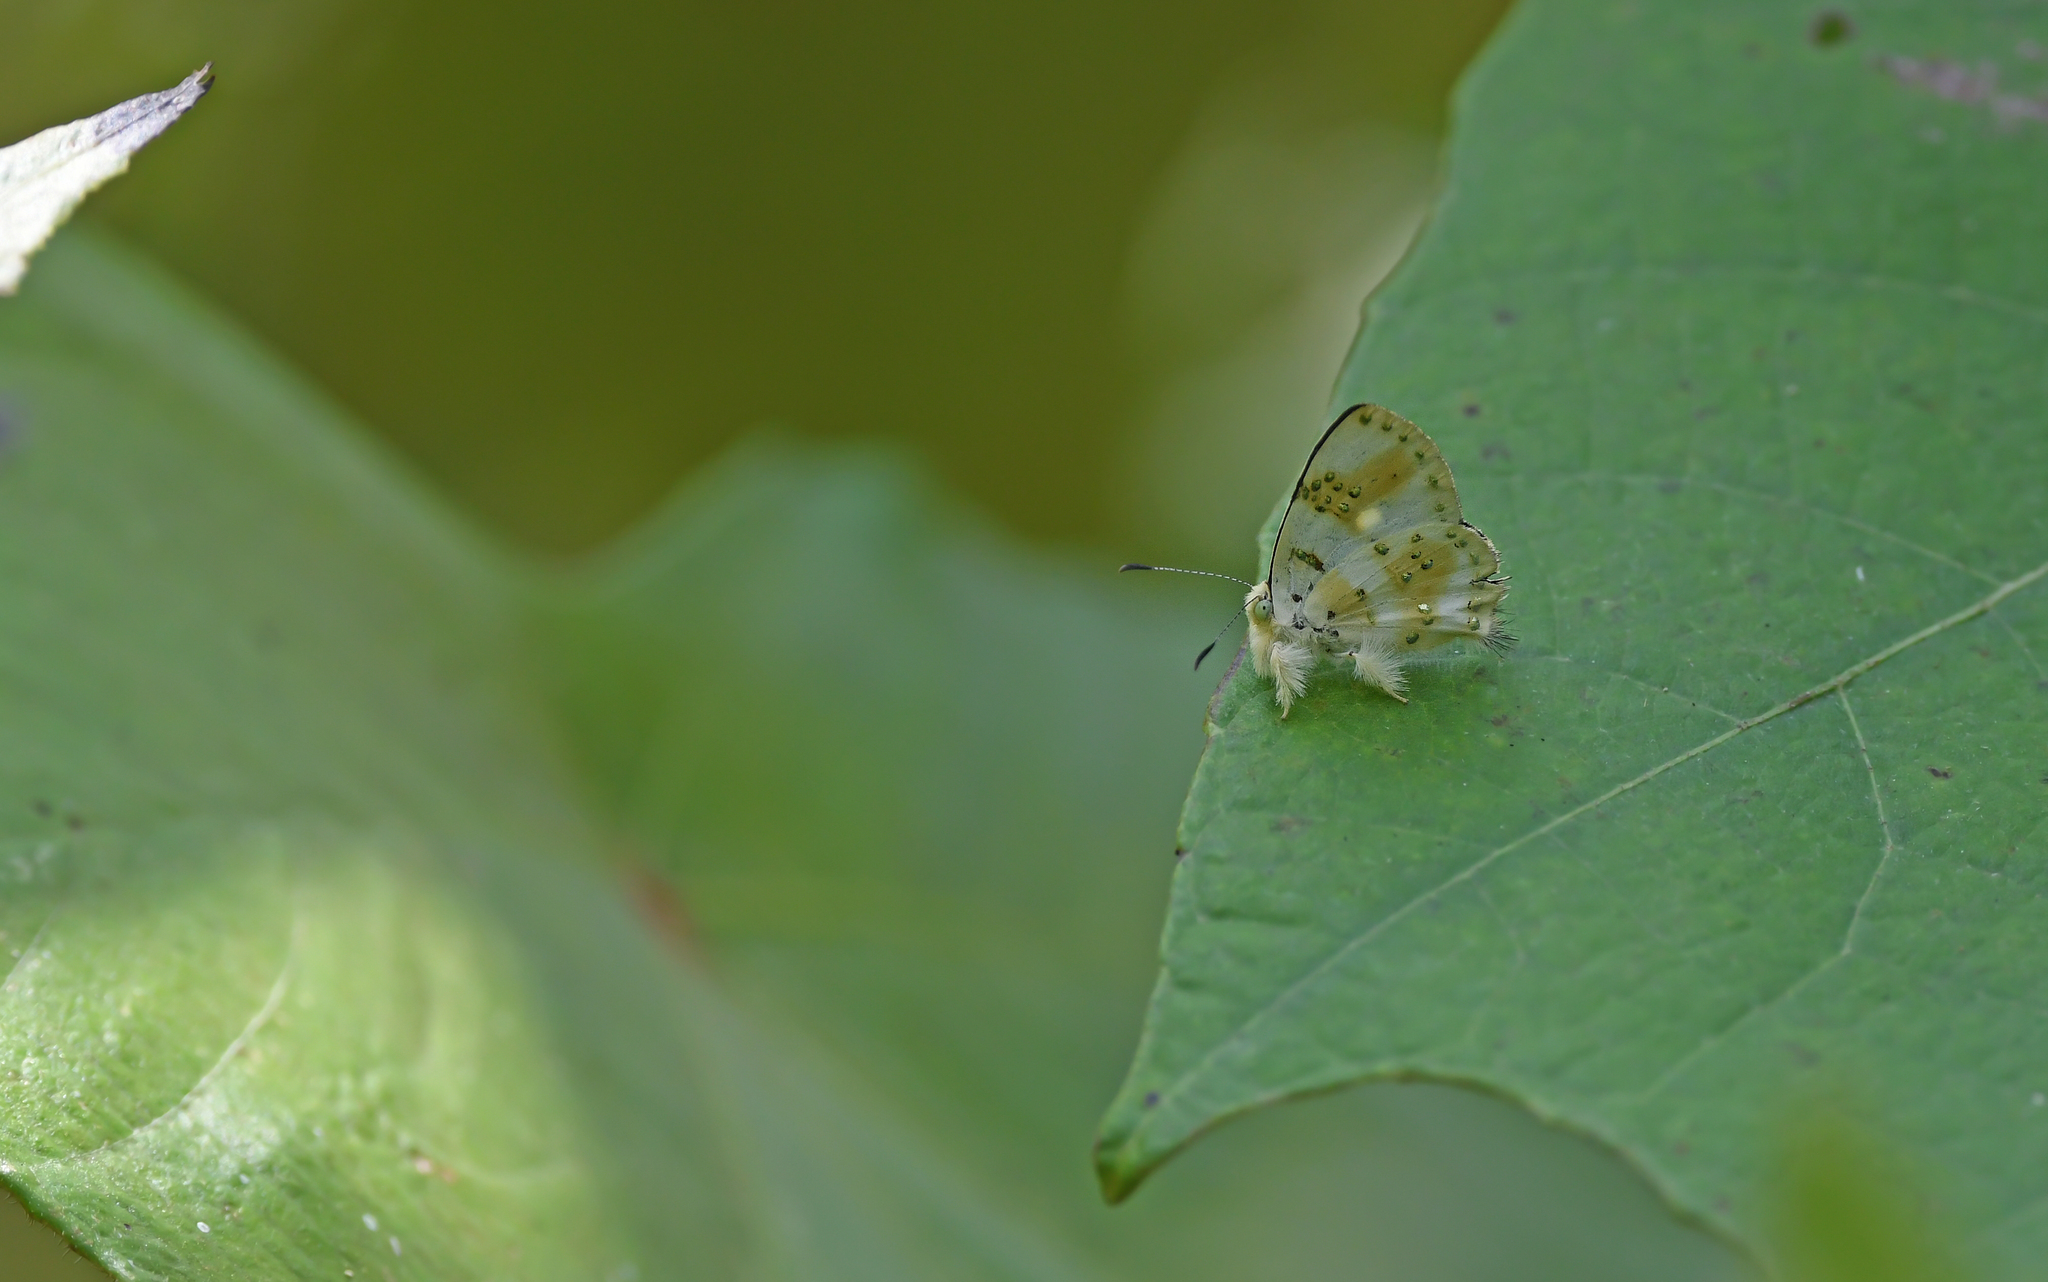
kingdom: Animalia
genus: Anteros
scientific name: Anteros chrysoprastus
